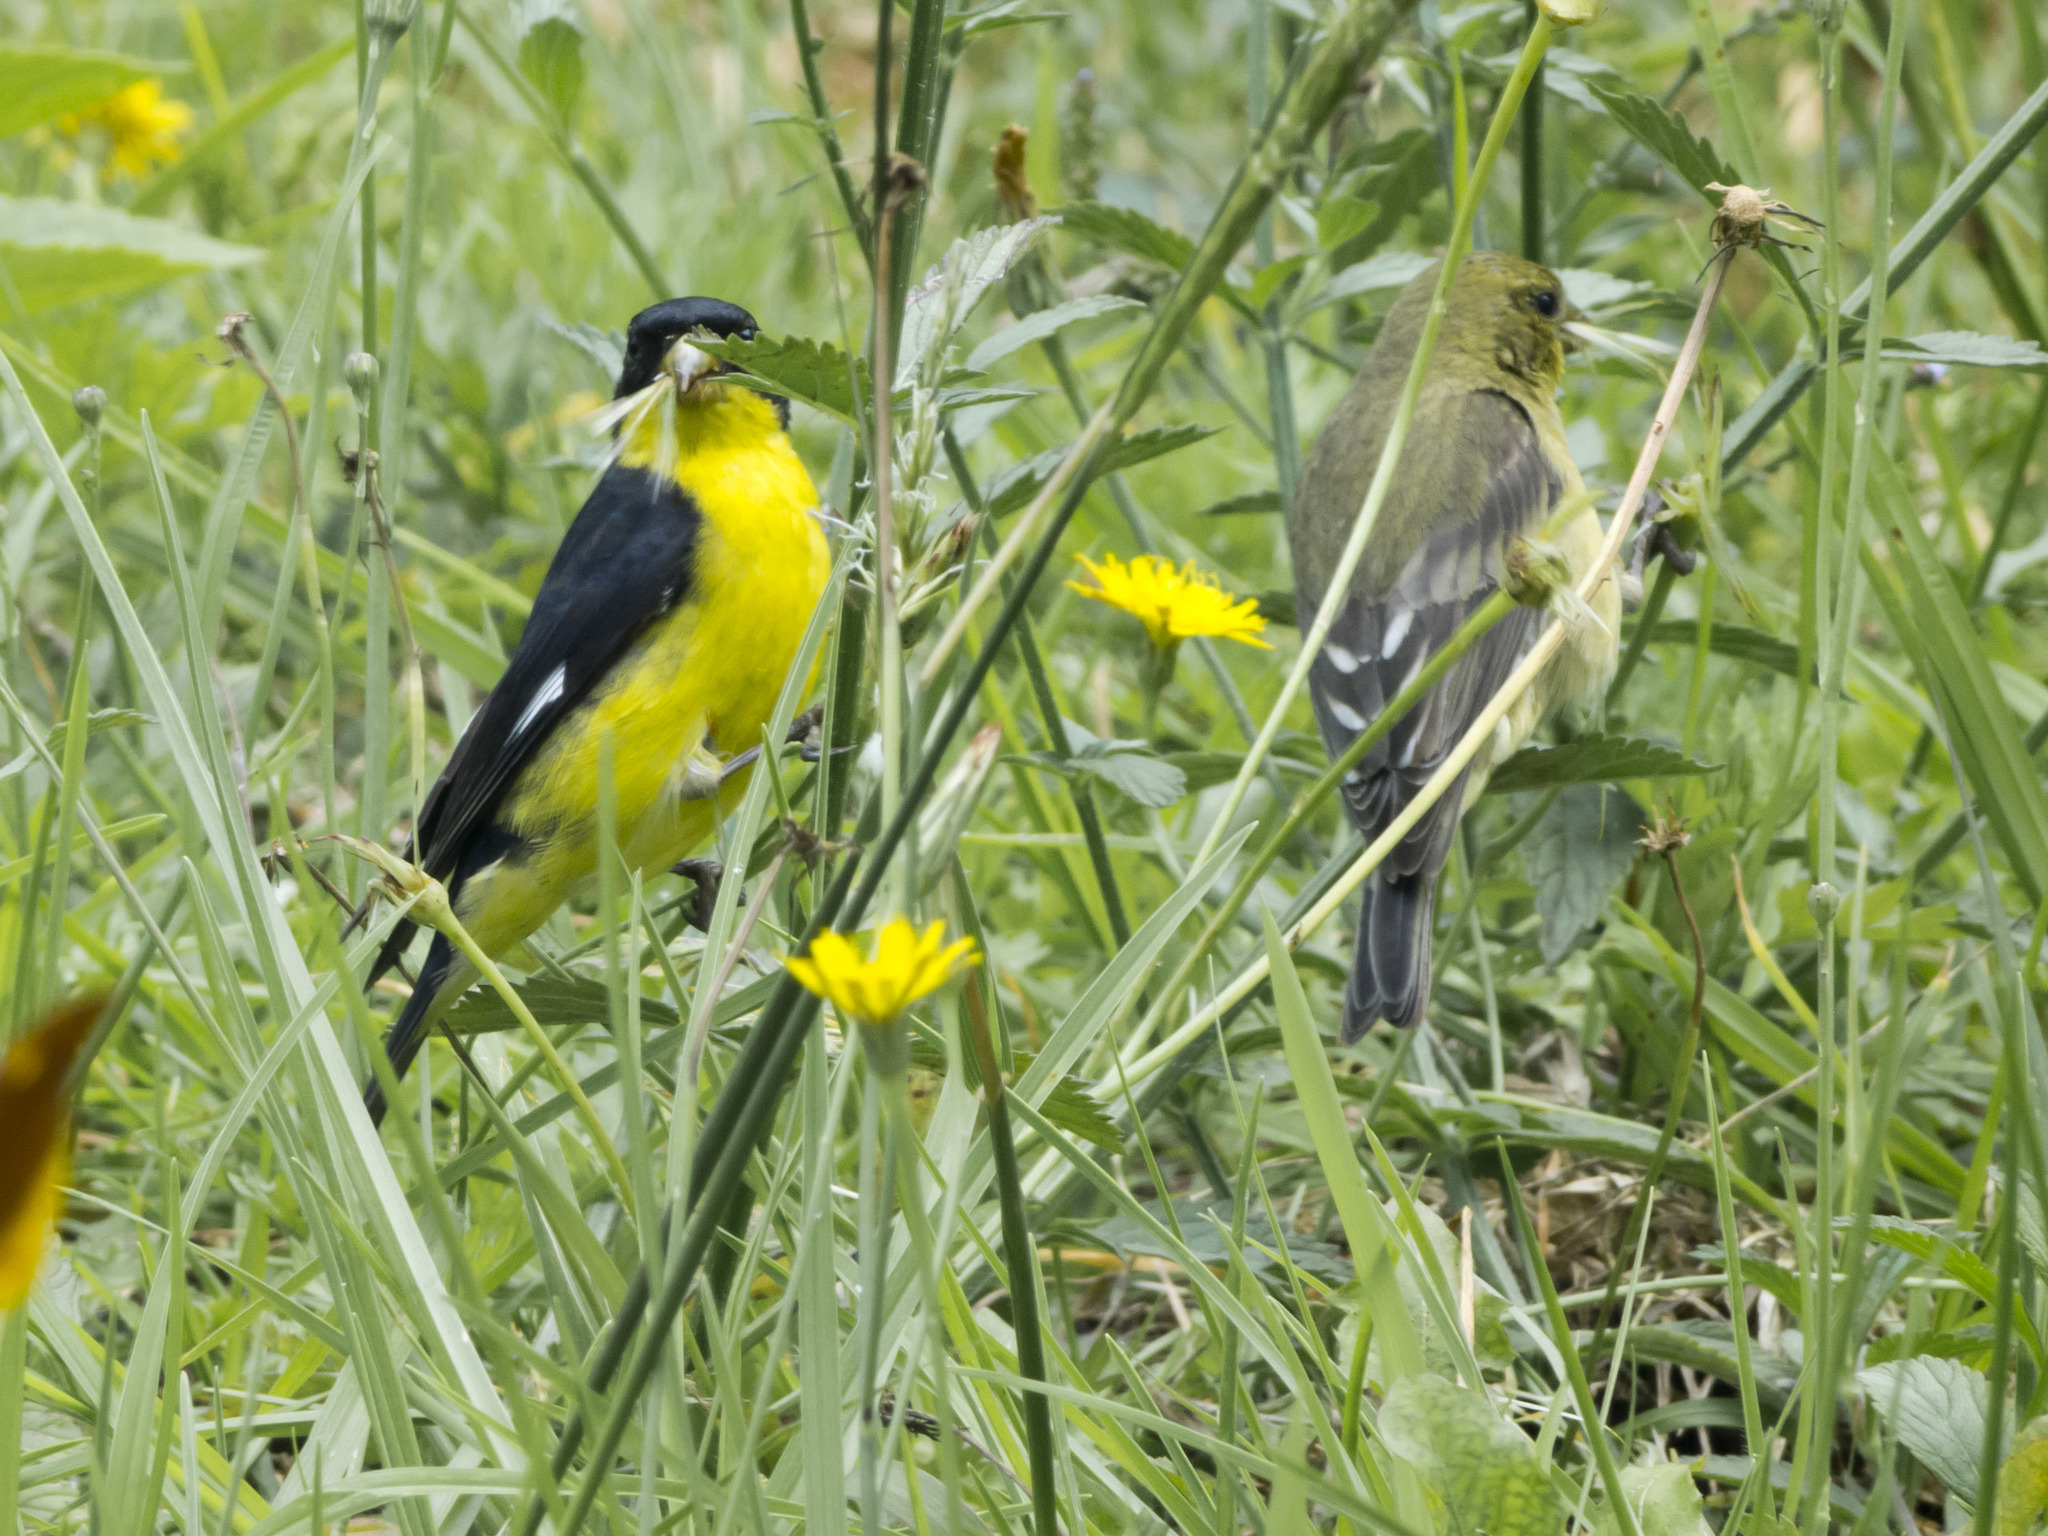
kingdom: Animalia
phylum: Chordata
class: Aves
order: Passeriformes
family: Fringillidae
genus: Spinus
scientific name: Spinus psaltria
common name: Lesser goldfinch
